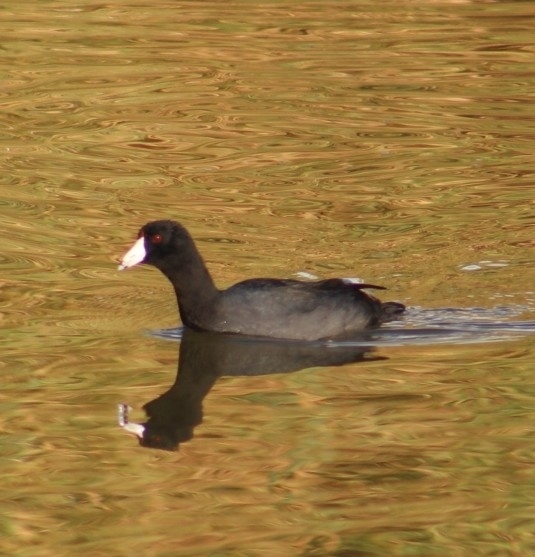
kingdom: Animalia
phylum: Chordata
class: Aves
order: Gruiformes
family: Rallidae
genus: Fulica
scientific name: Fulica americana
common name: American coot
